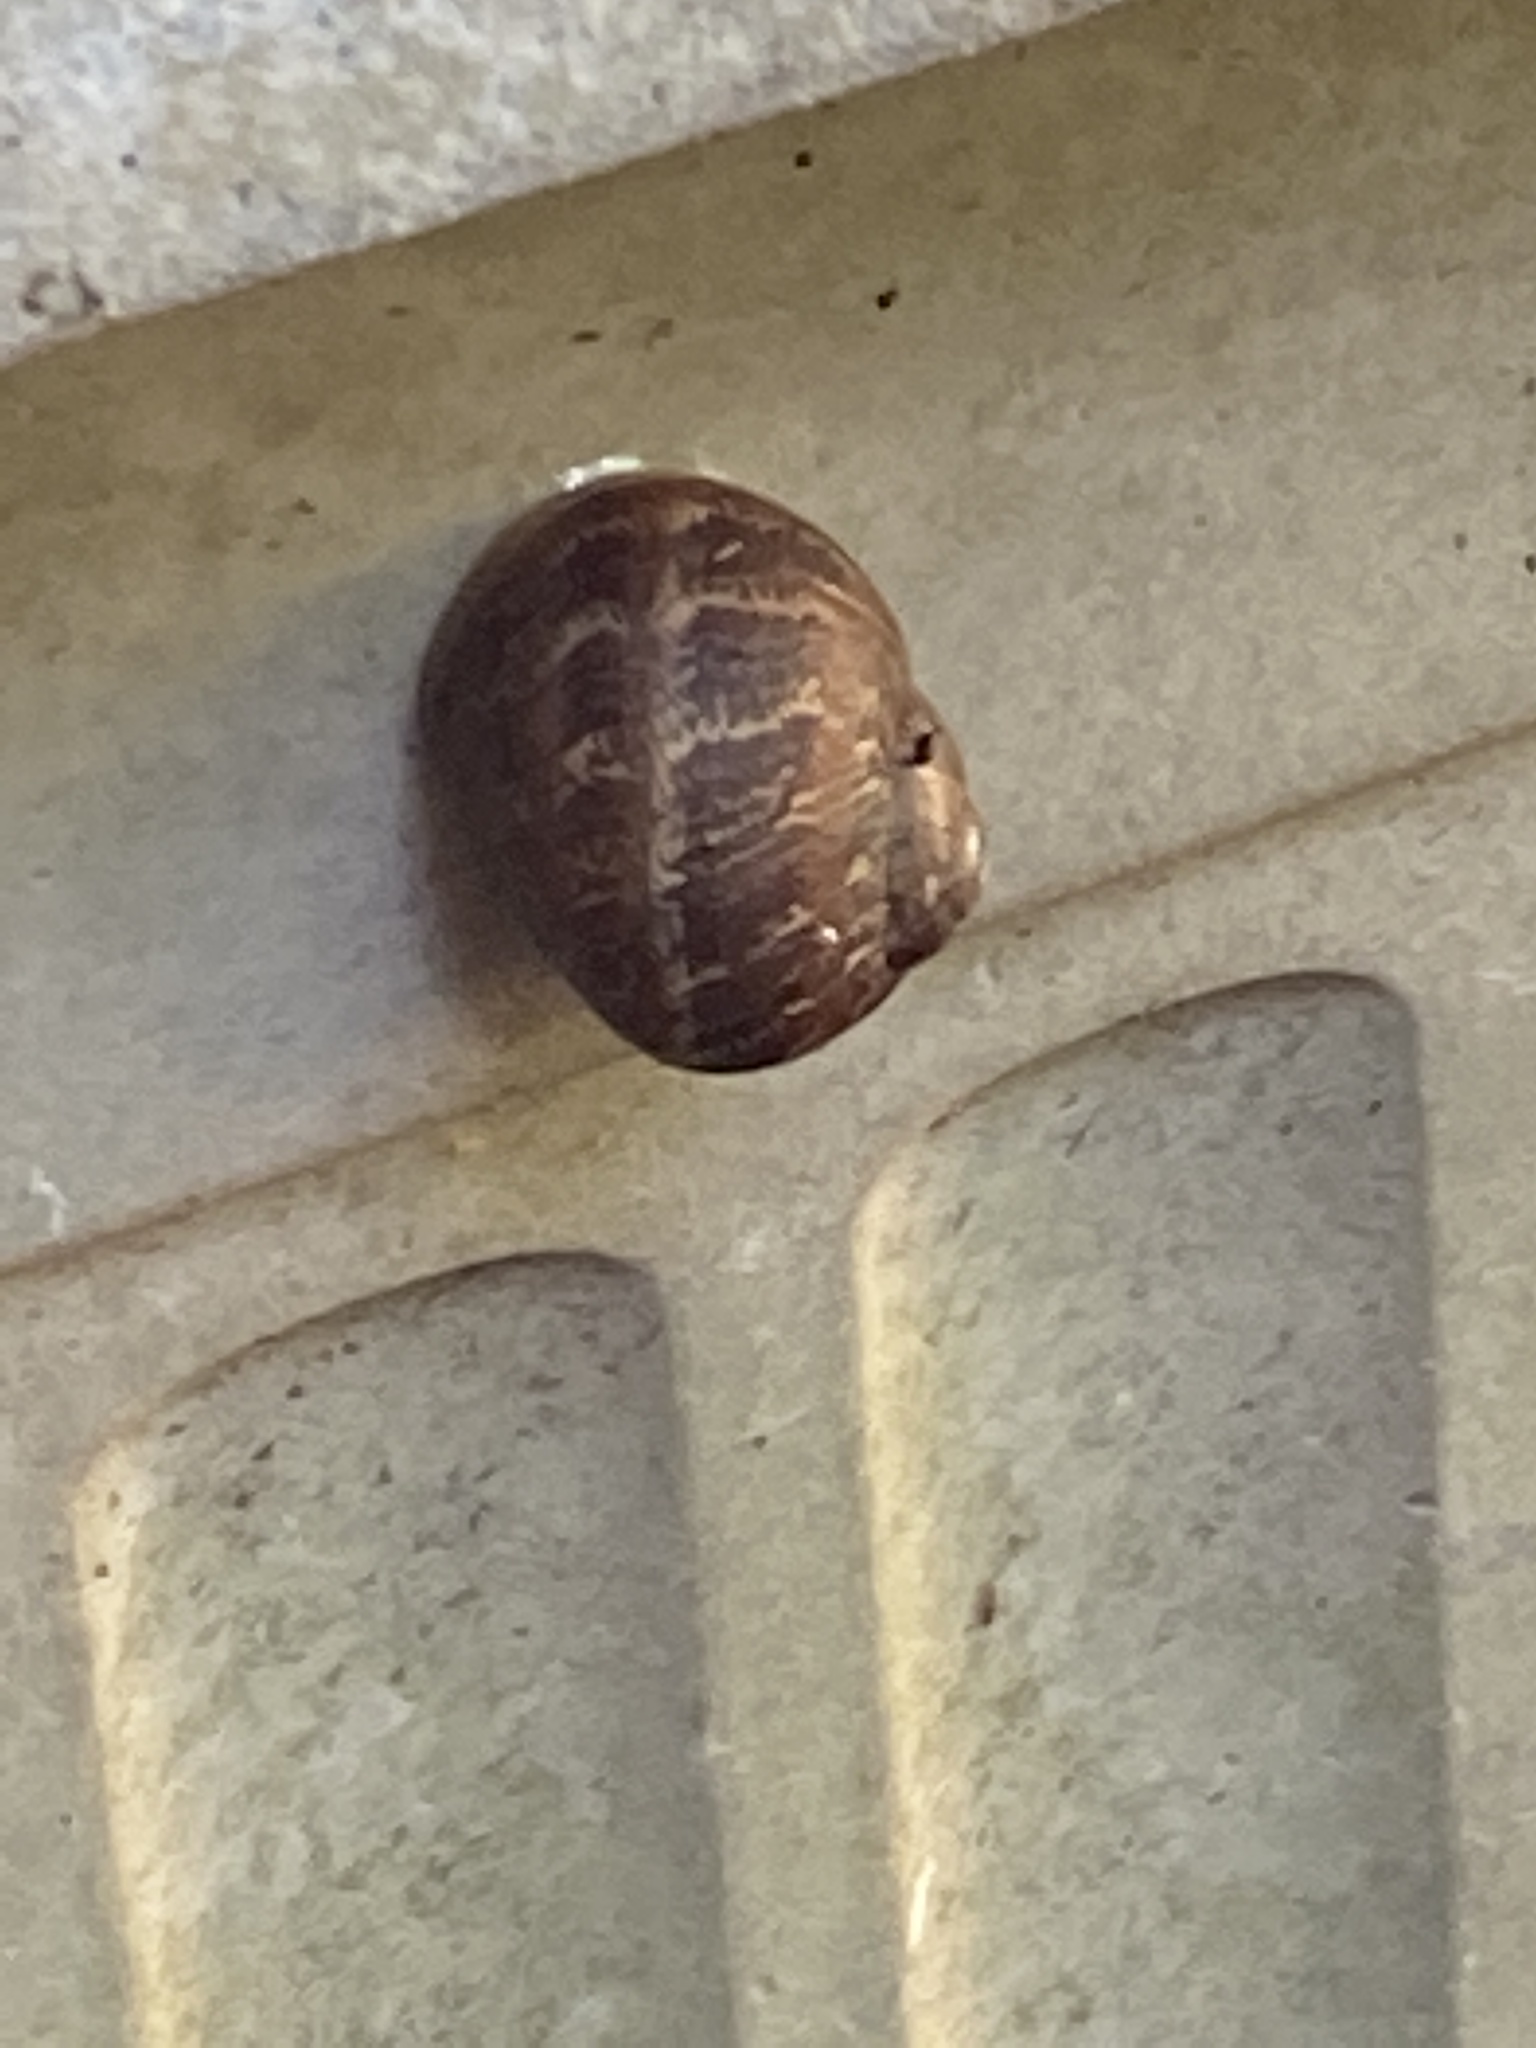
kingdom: Animalia
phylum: Mollusca
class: Gastropoda
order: Stylommatophora
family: Helicidae
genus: Cornu
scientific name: Cornu aspersum
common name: Brown garden snail
